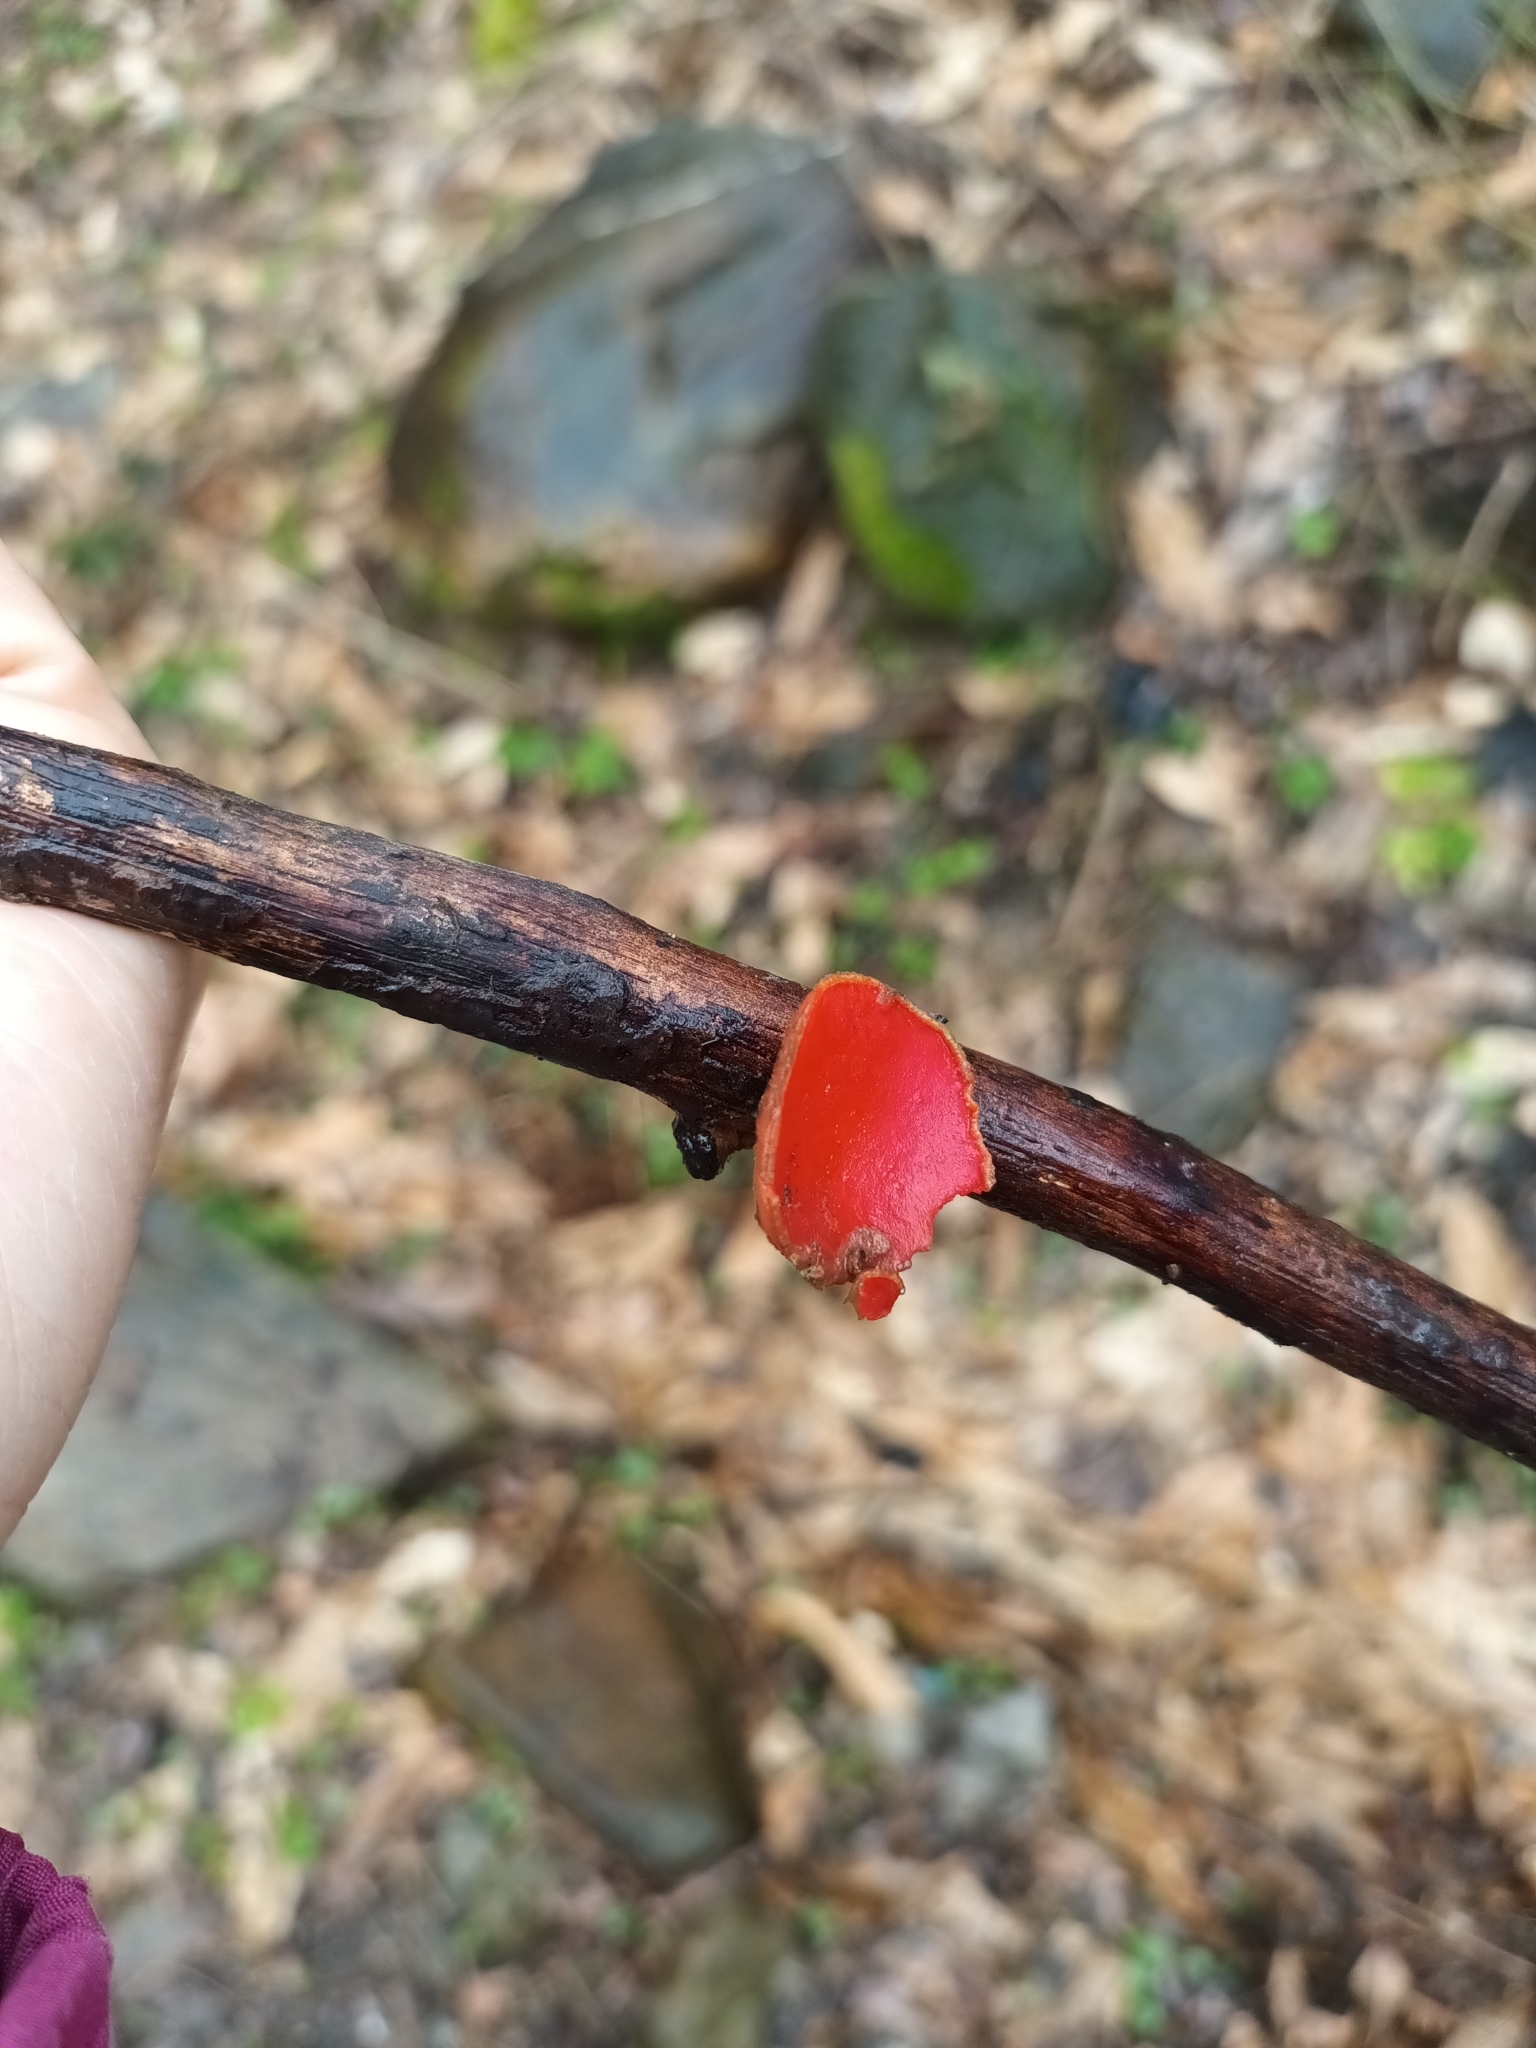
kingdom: Fungi
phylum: Ascomycota
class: Pezizomycetes
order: Pezizales
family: Sarcoscyphaceae
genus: Sarcoscypha
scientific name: Sarcoscypha coccinea
